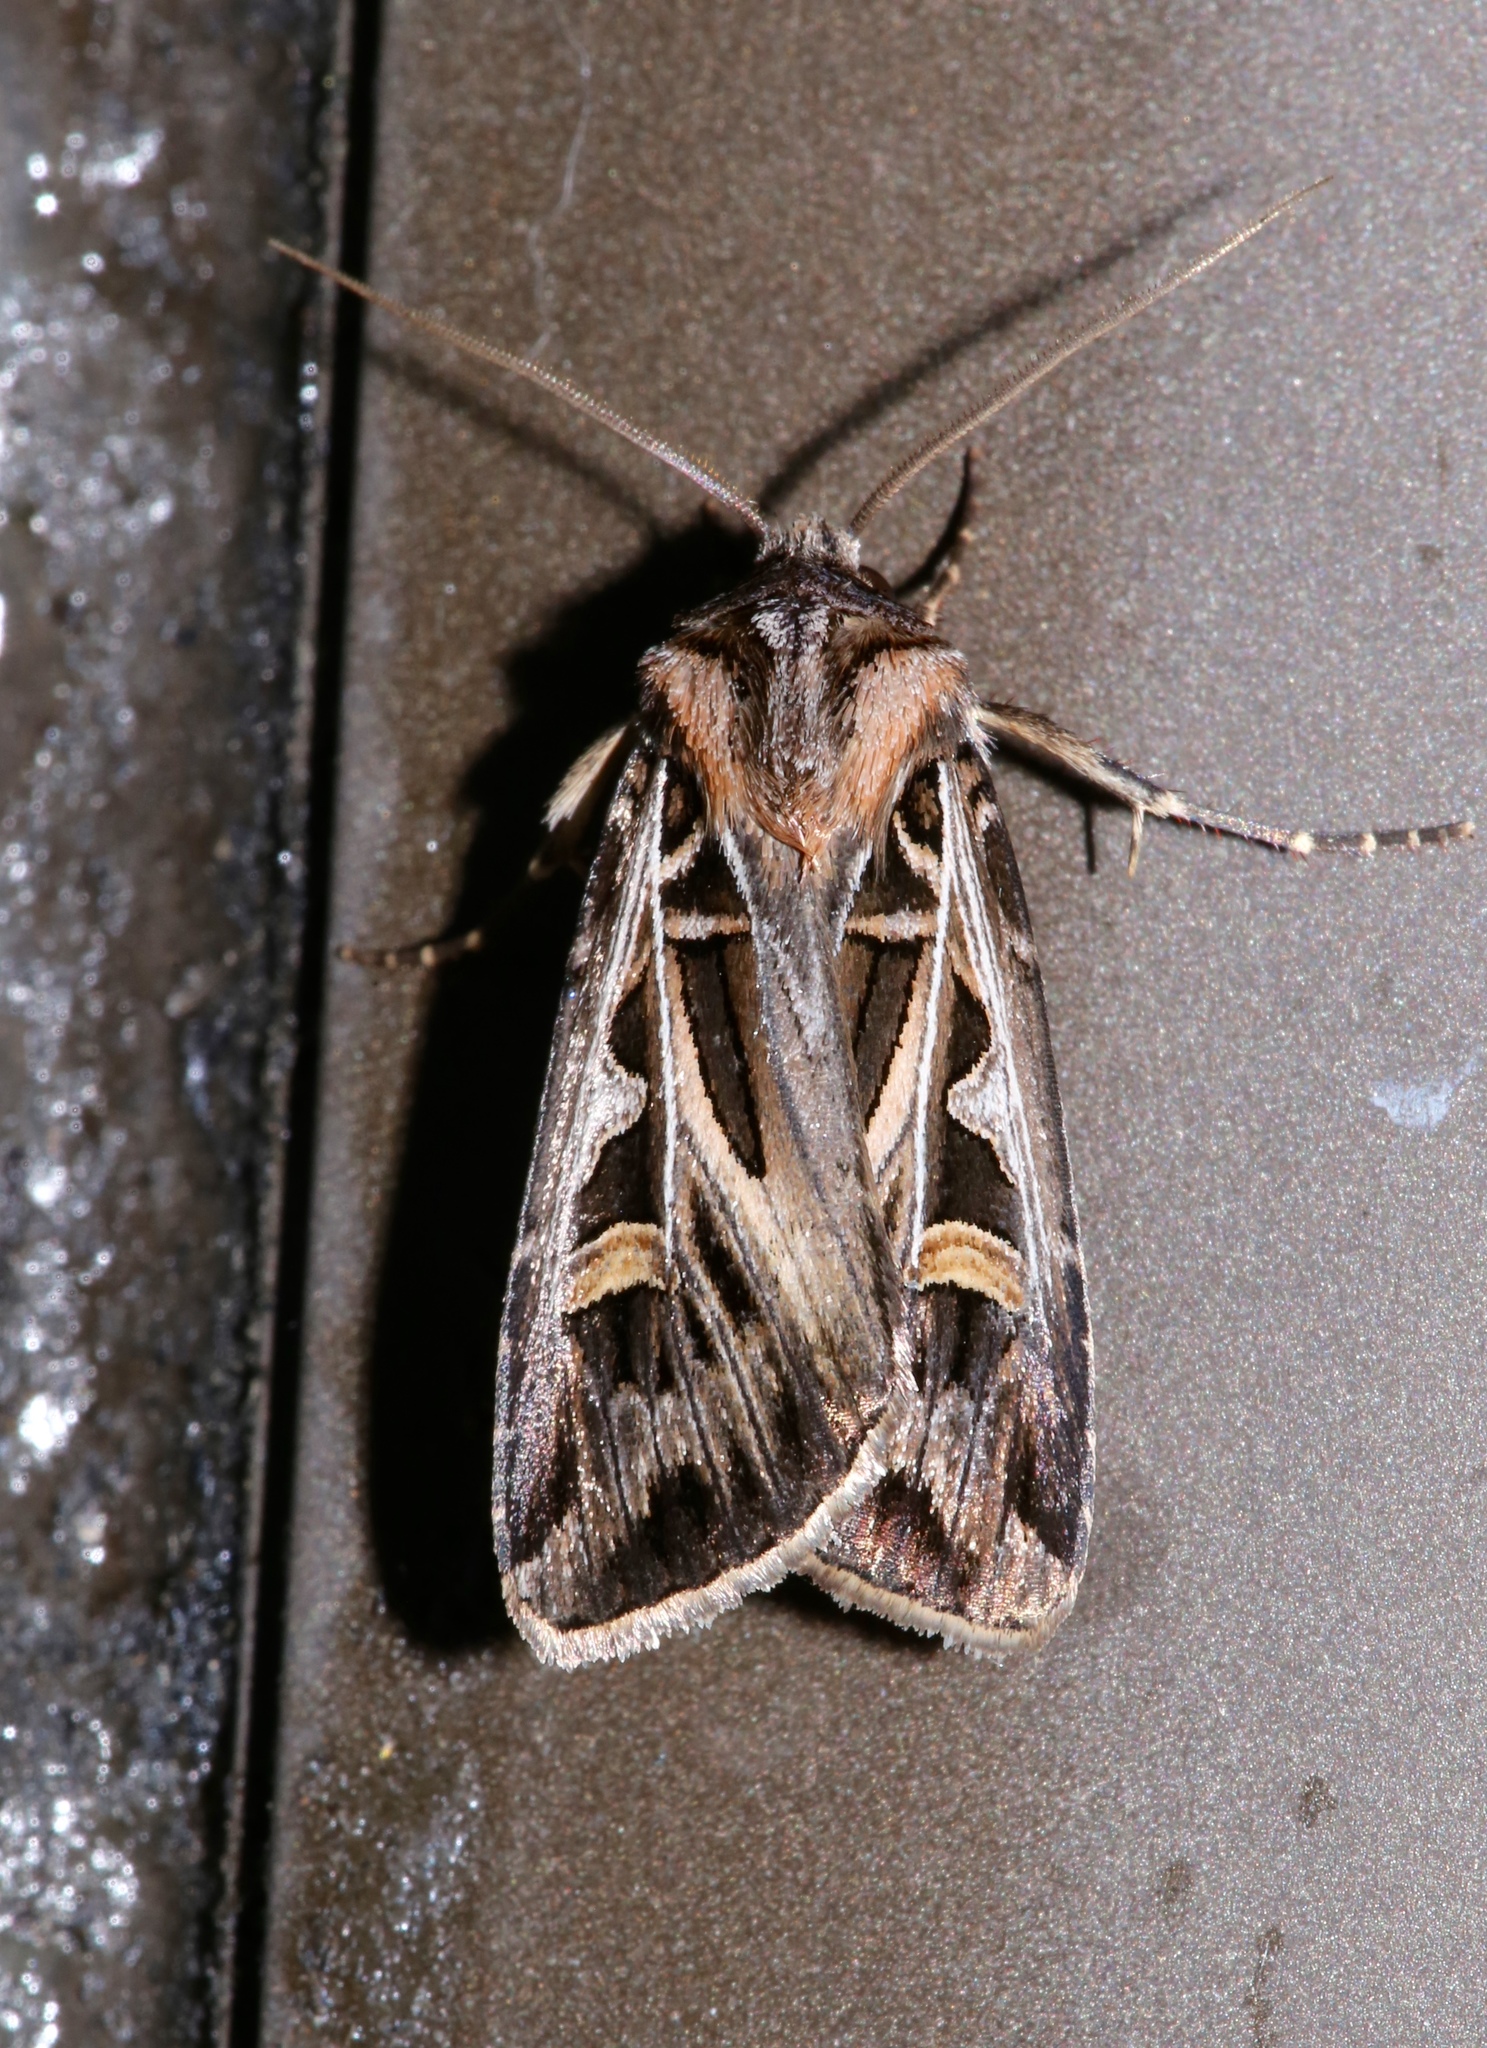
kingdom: Animalia
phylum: Arthropoda
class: Insecta
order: Lepidoptera
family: Noctuidae
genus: Feltia
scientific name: Feltia jaculifera
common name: Dingy cutworm moth
